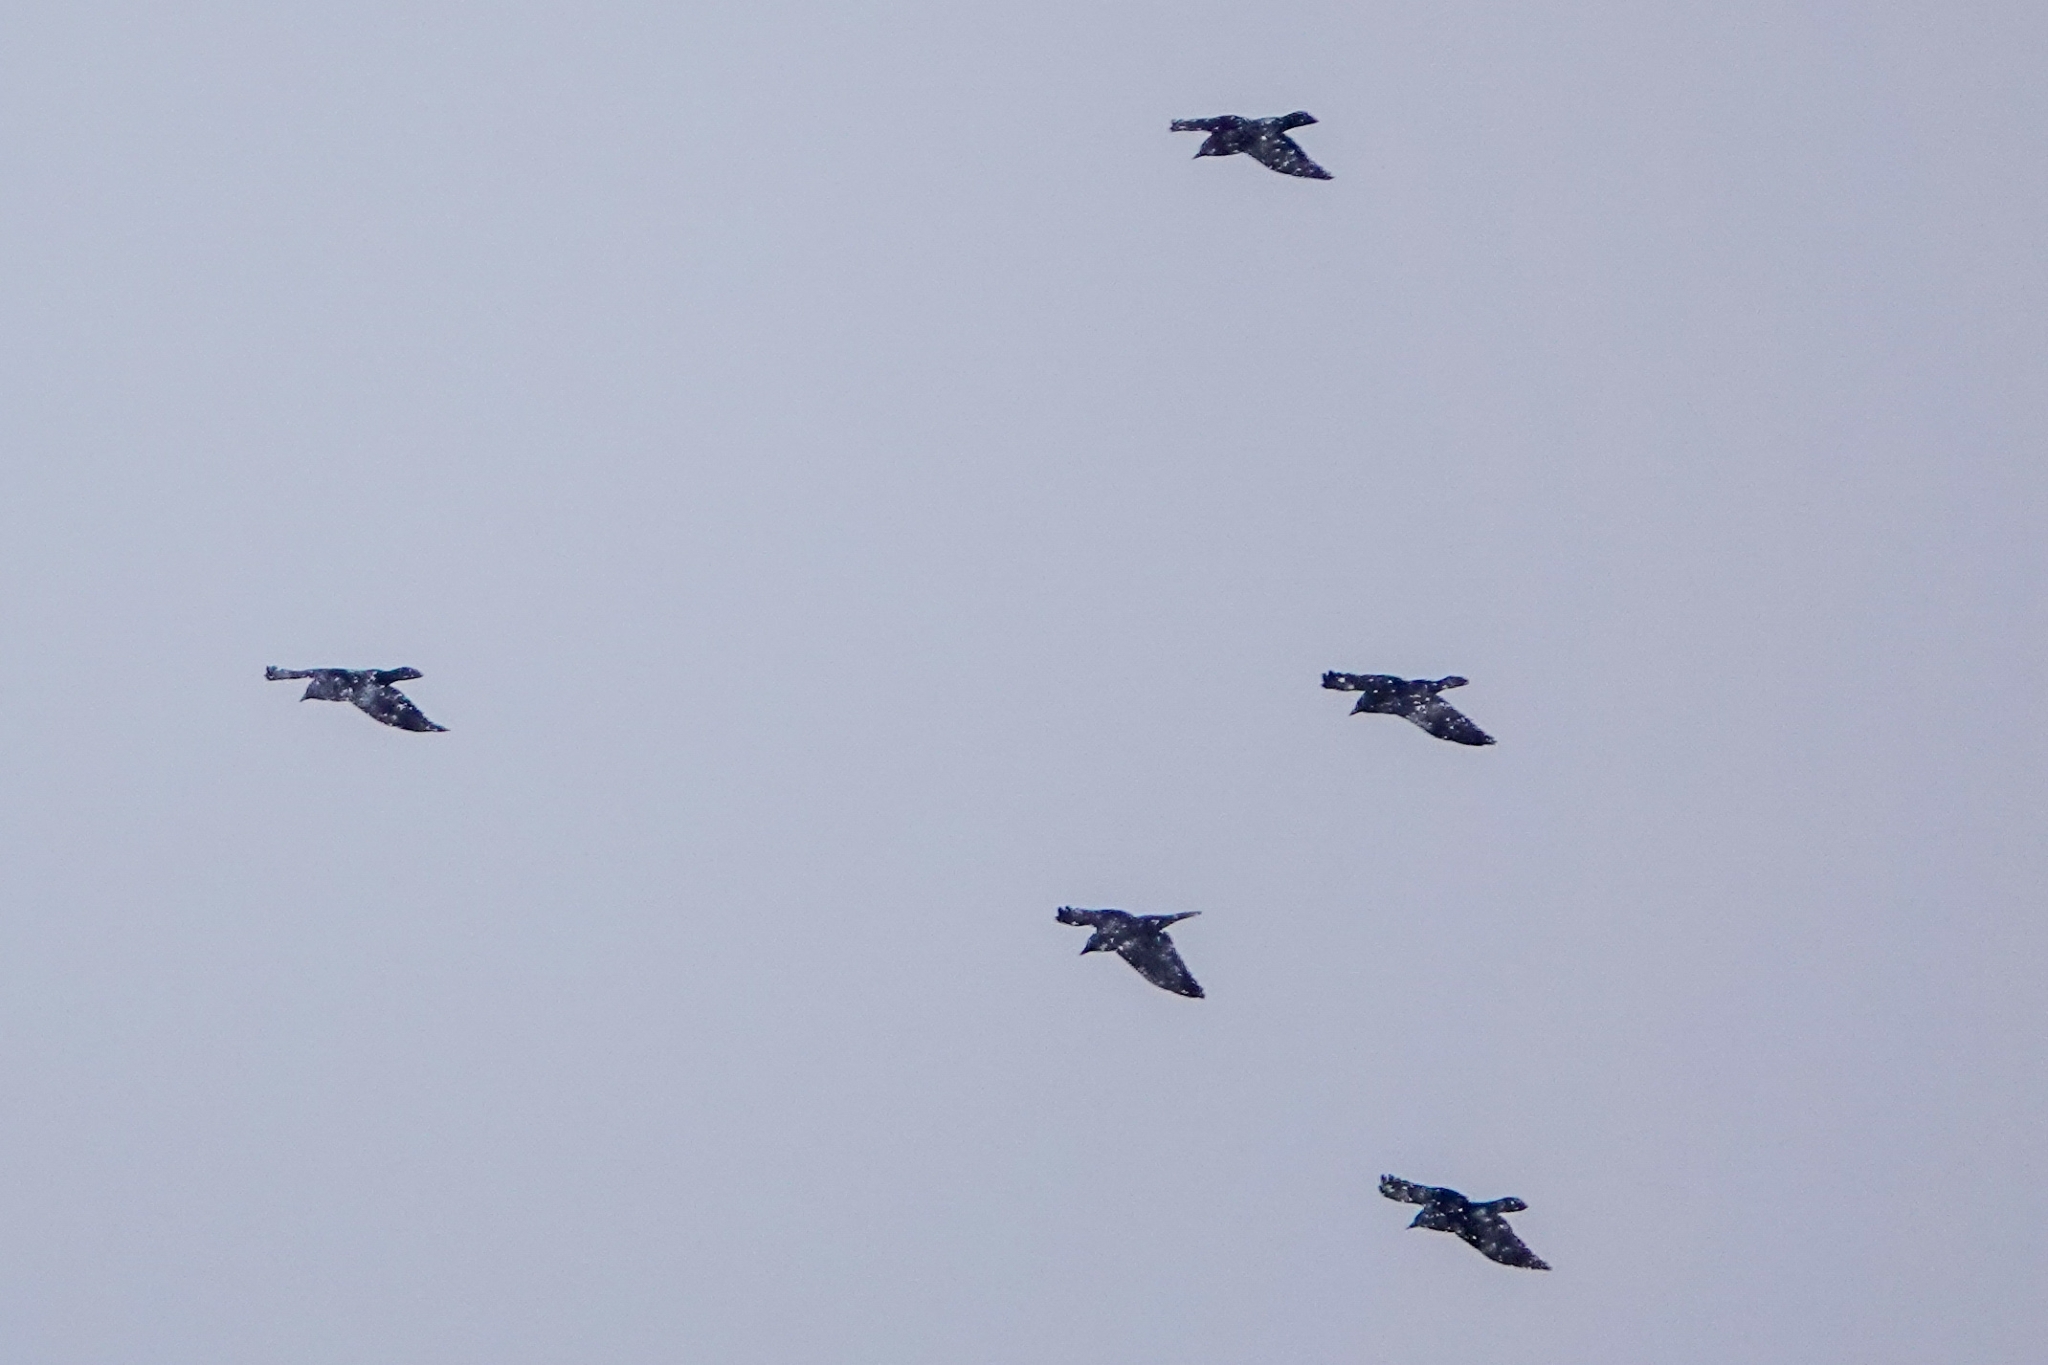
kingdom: Animalia
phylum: Chordata
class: Aves
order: Passeriformes
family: Corvidae
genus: Coloeus
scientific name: Coloeus monedula
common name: Western jackdaw
